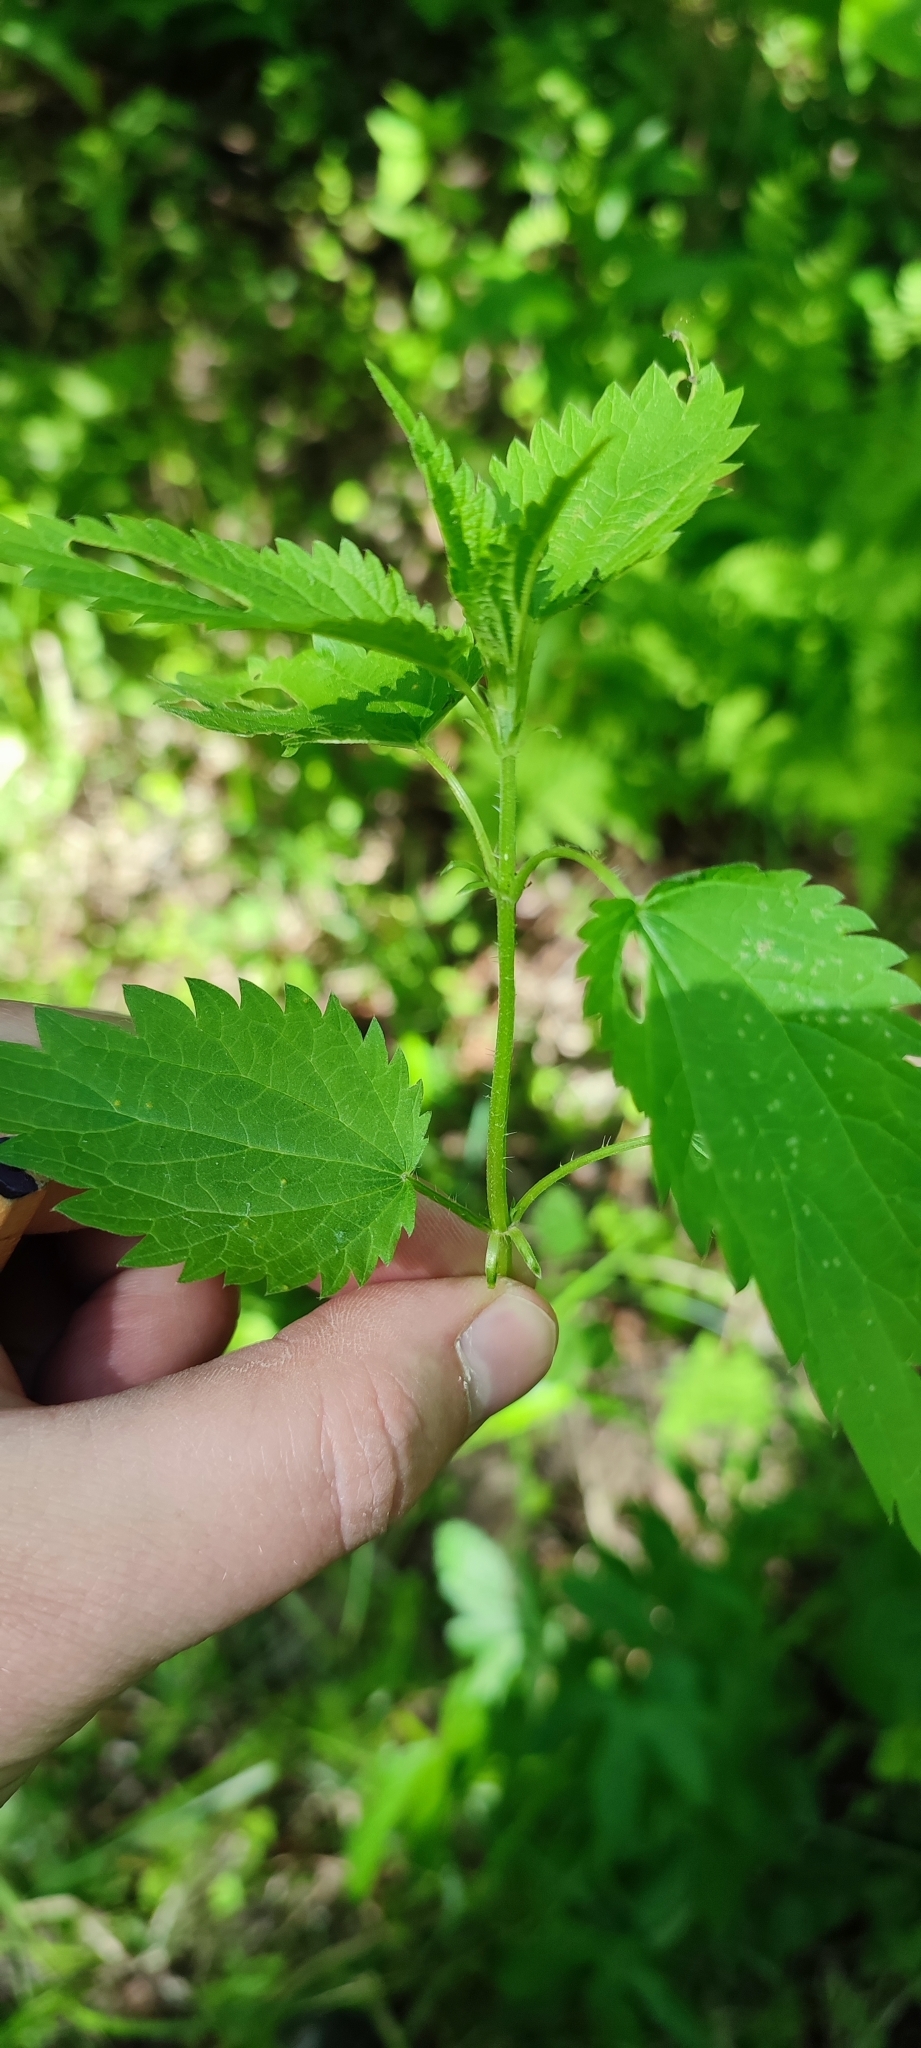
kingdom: Plantae
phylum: Tracheophyta
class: Magnoliopsida
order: Rosales
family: Urticaceae
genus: Urtica
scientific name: Urtica dioica
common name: Common nettle
